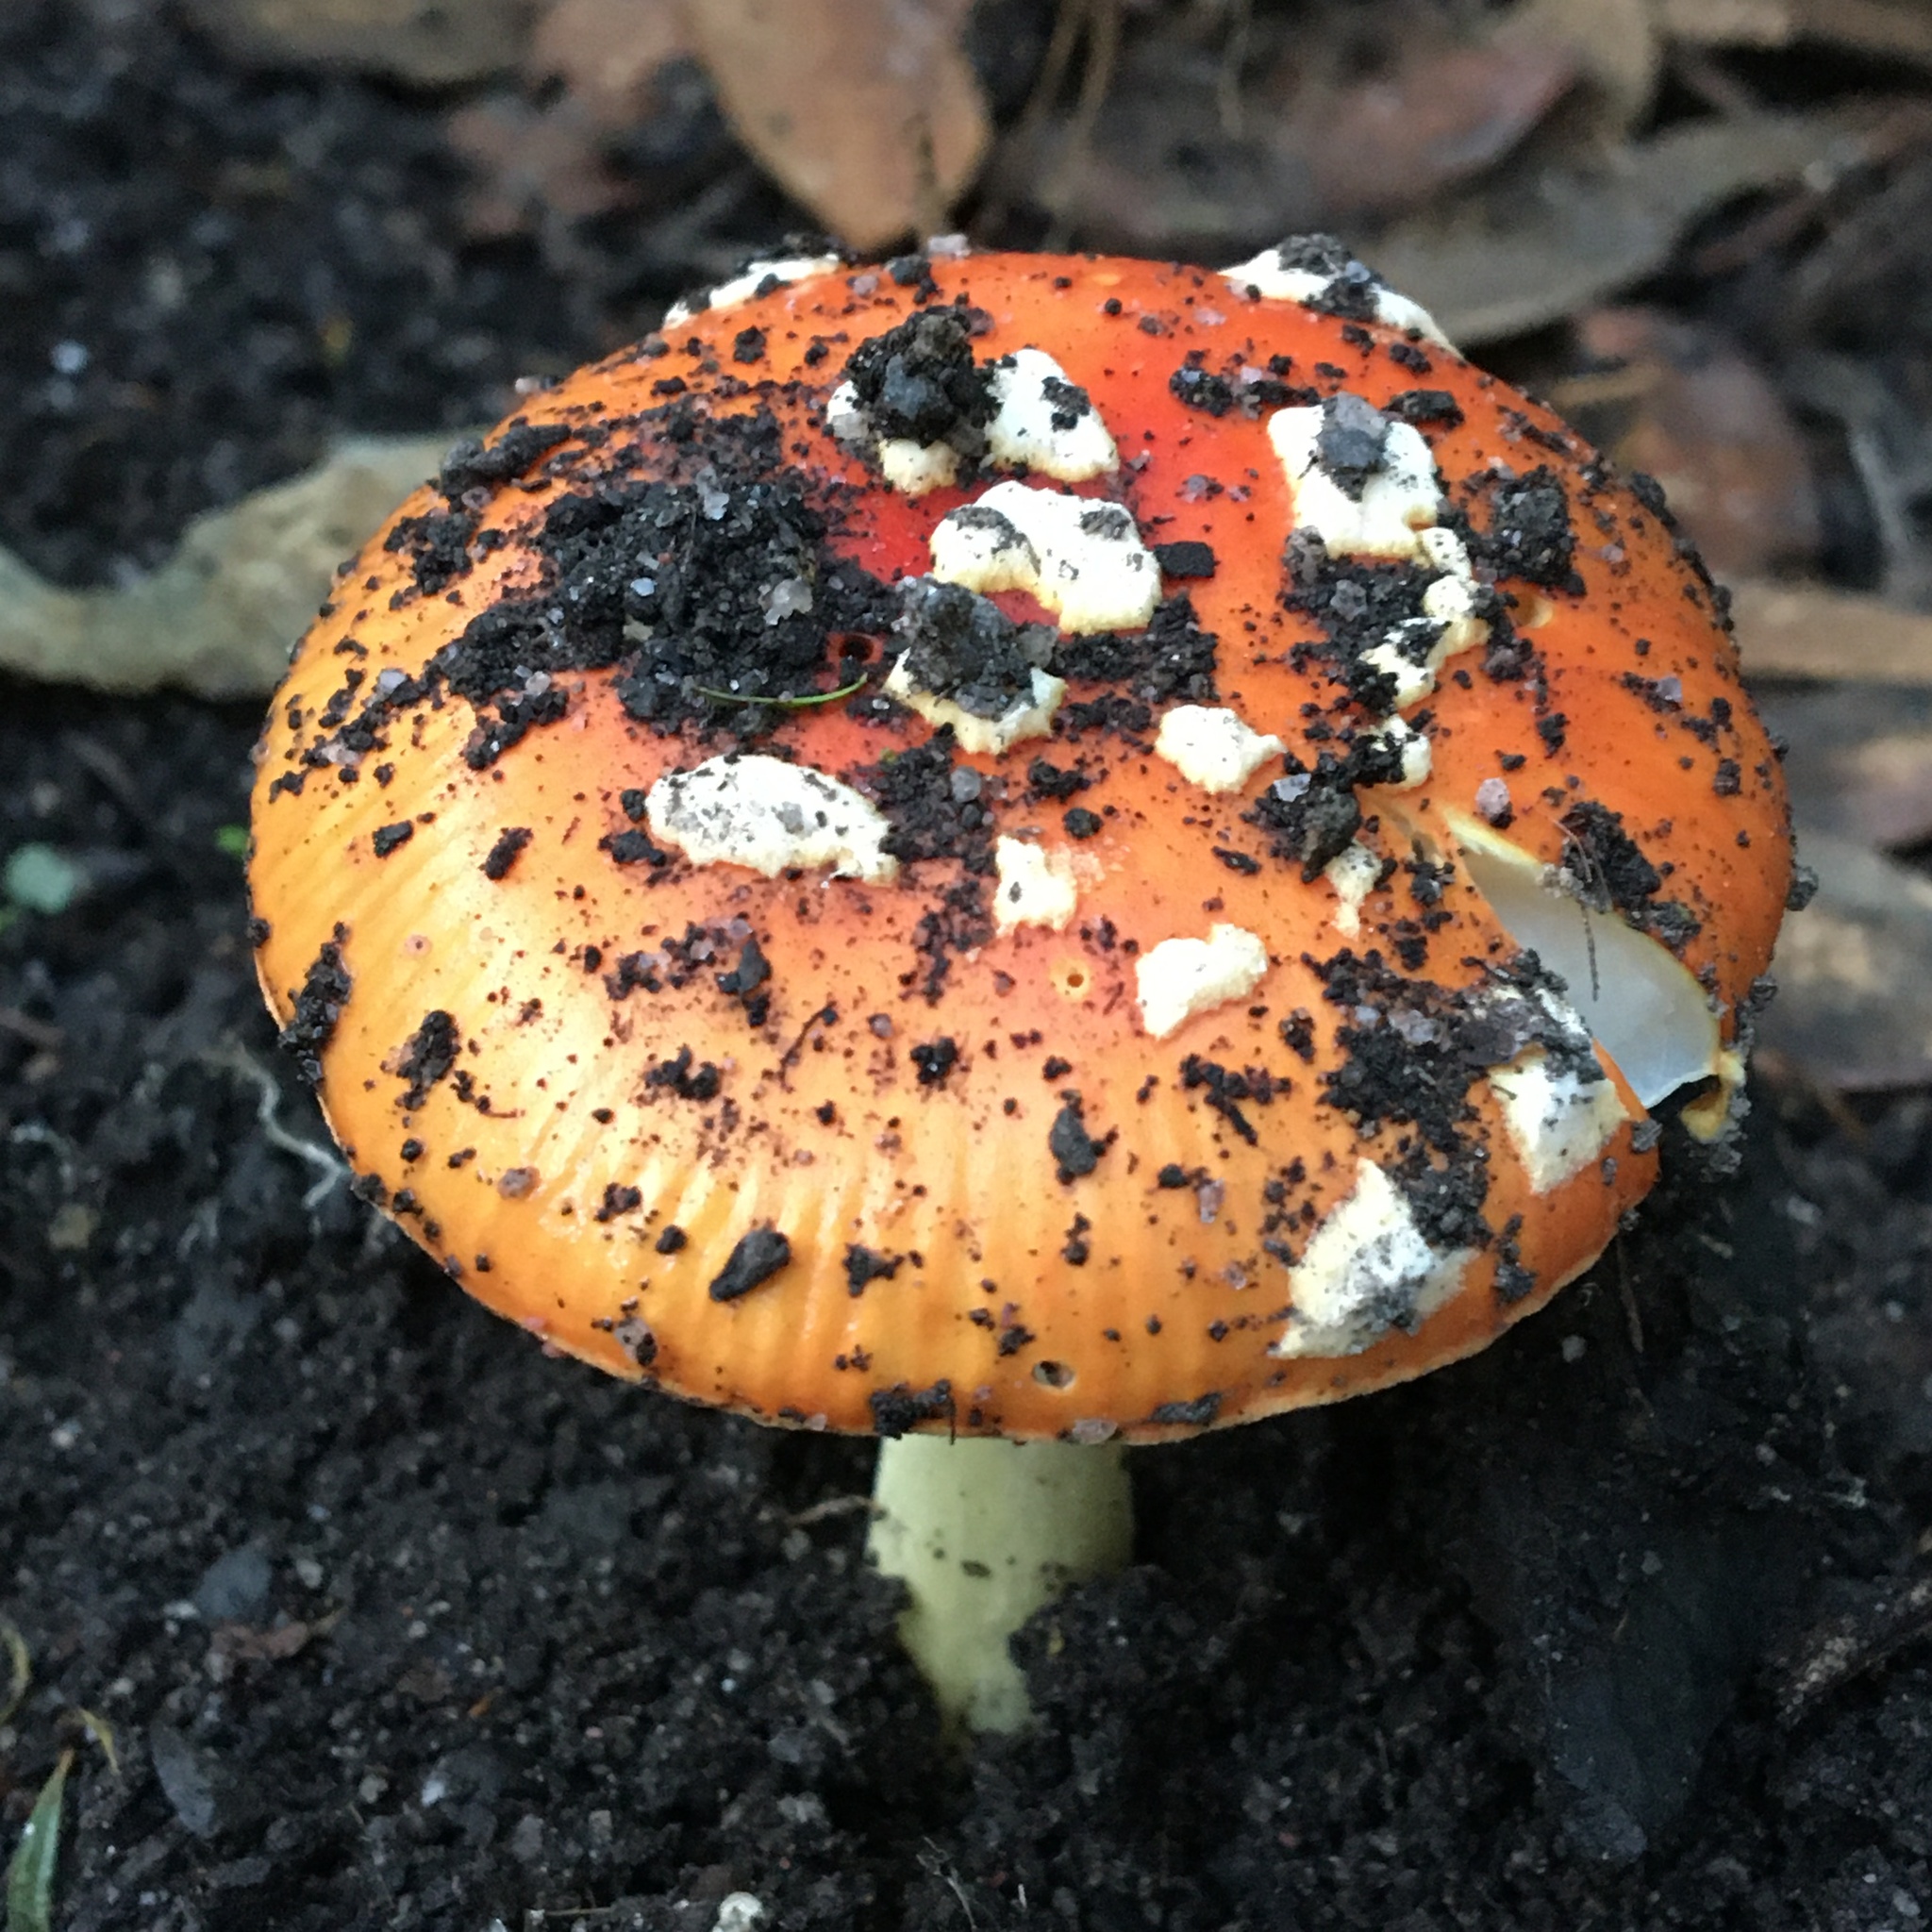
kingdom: Fungi
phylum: Basidiomycota
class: Agaricomycetes
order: Agaricales
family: Amanitaceae
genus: Amanita
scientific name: Amanita xanthocephala
